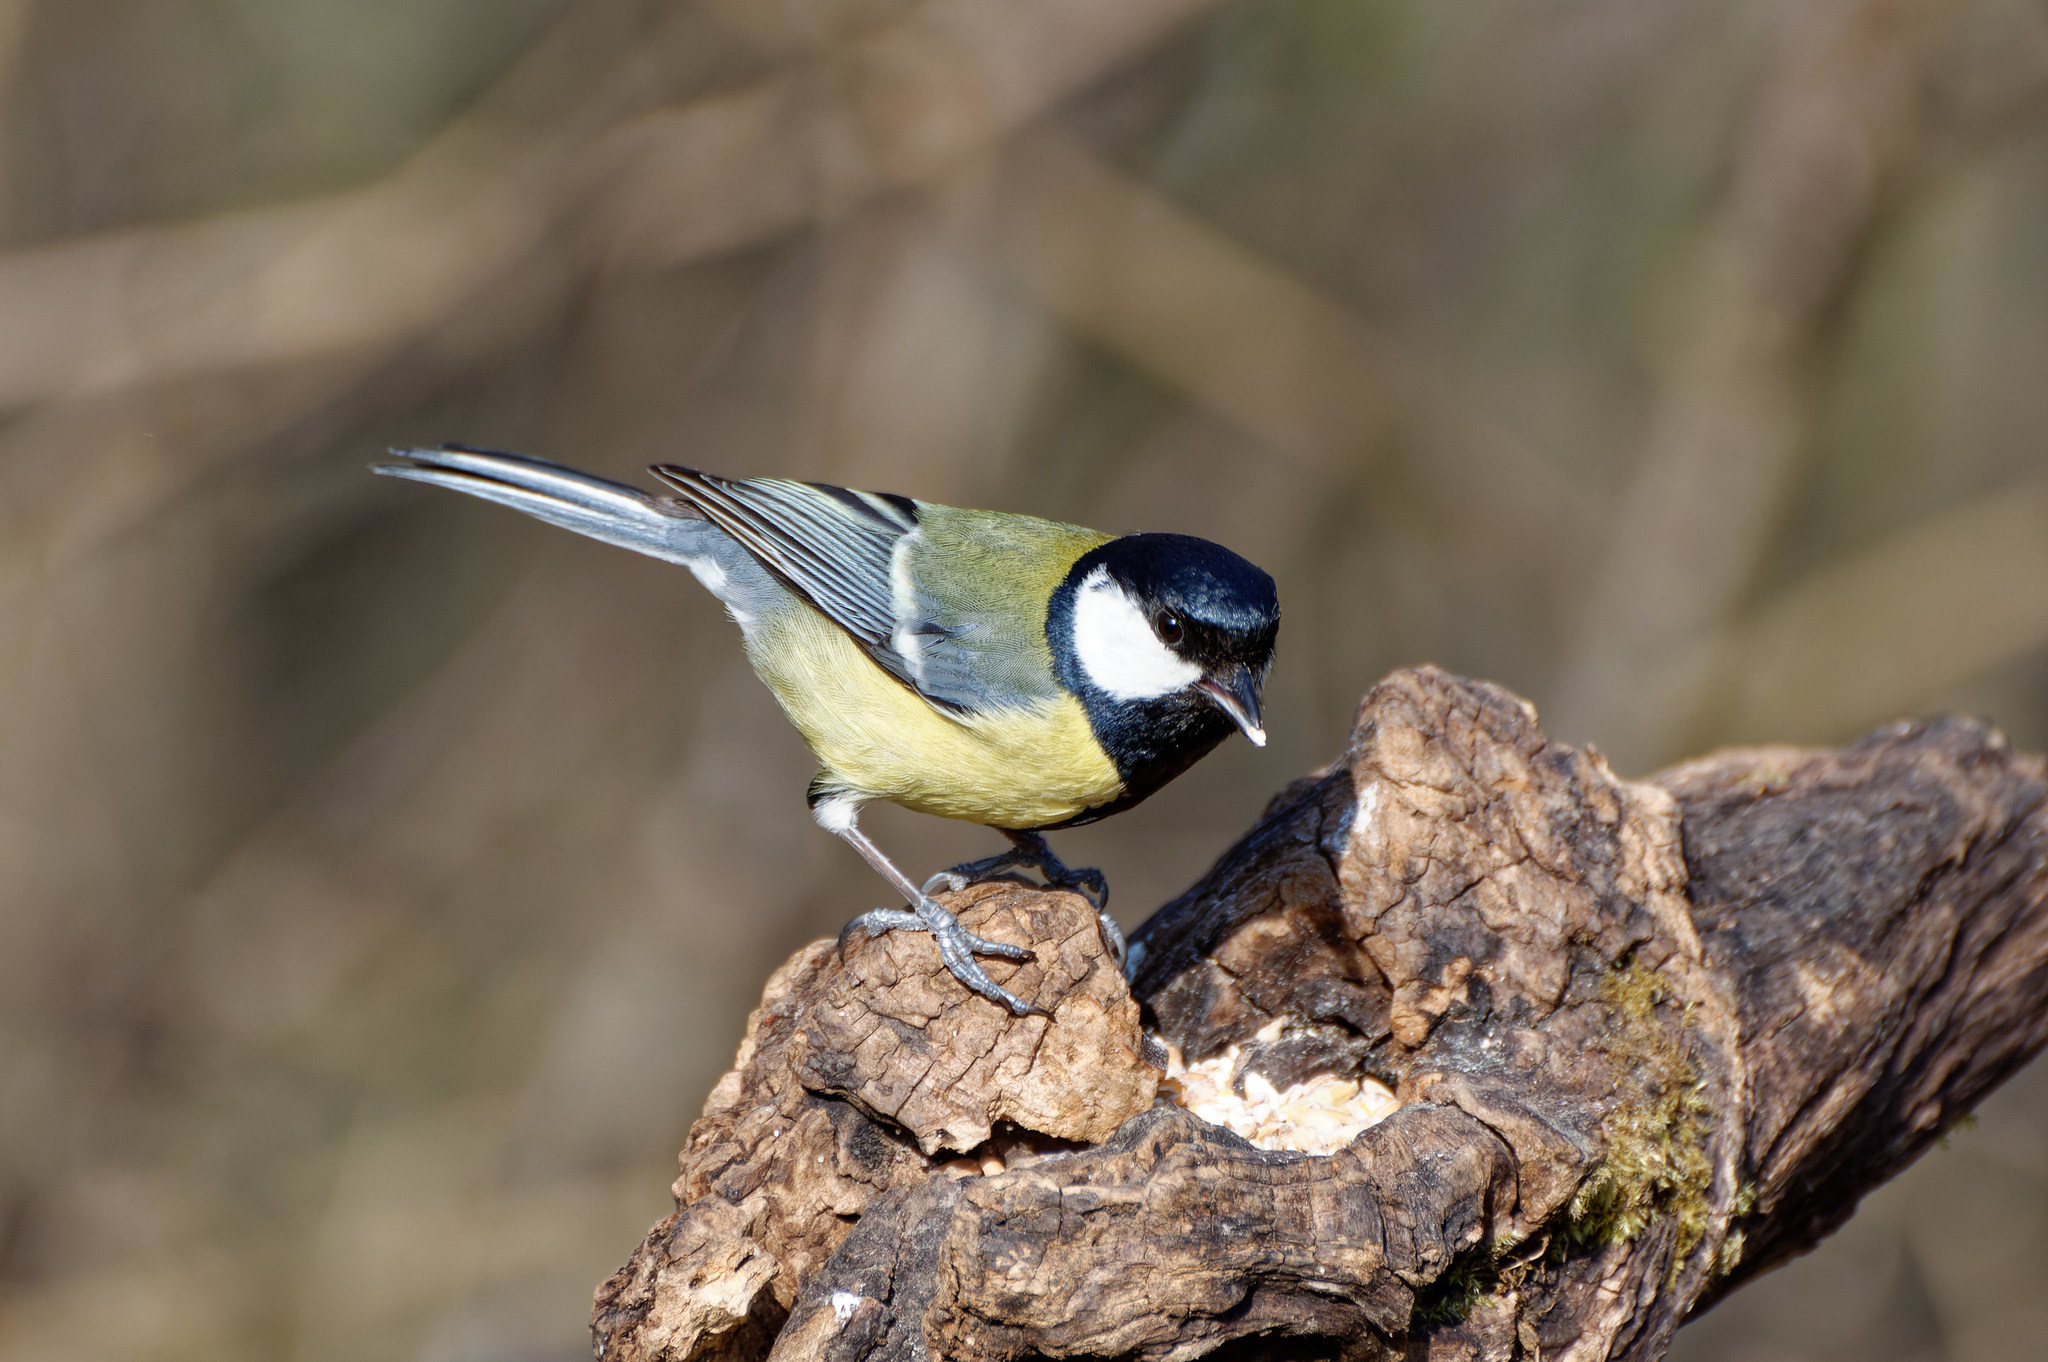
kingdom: Animalia
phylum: Chordata
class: Aves
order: Passeriformes
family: Paridae
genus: Parus
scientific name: Parus major
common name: Great tit
